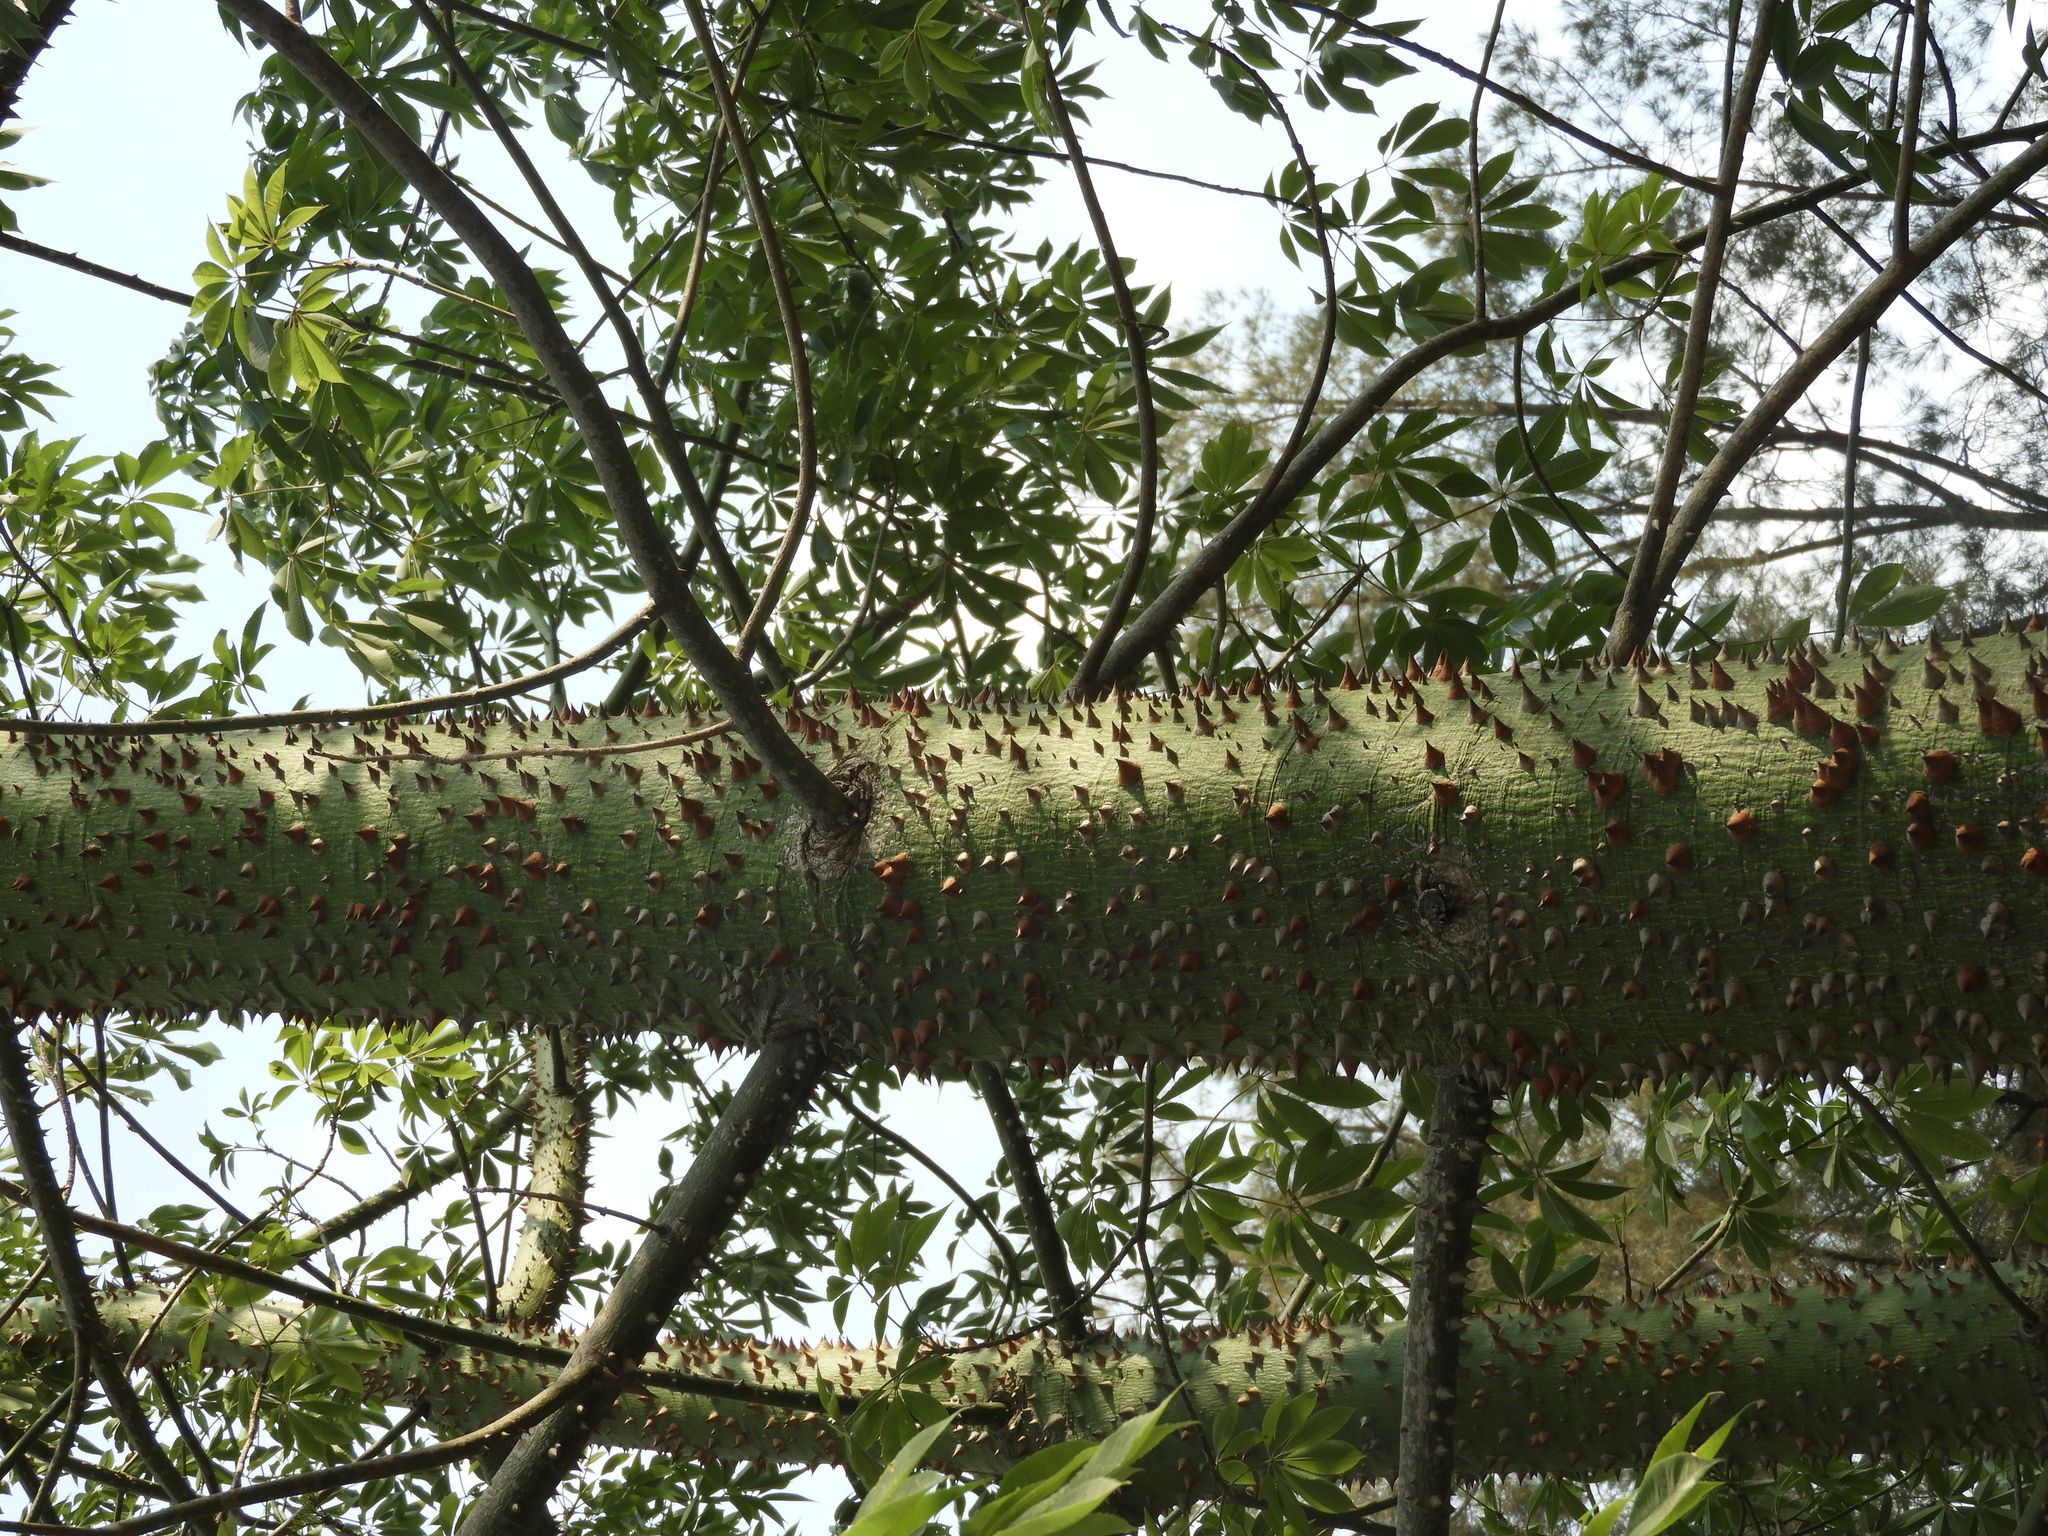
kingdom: Plantae
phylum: Tracheophyta
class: Magnoliopsida
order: Malvales
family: Malvaceae
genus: Ceiba
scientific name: Ceiba pentandra
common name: Kapok
